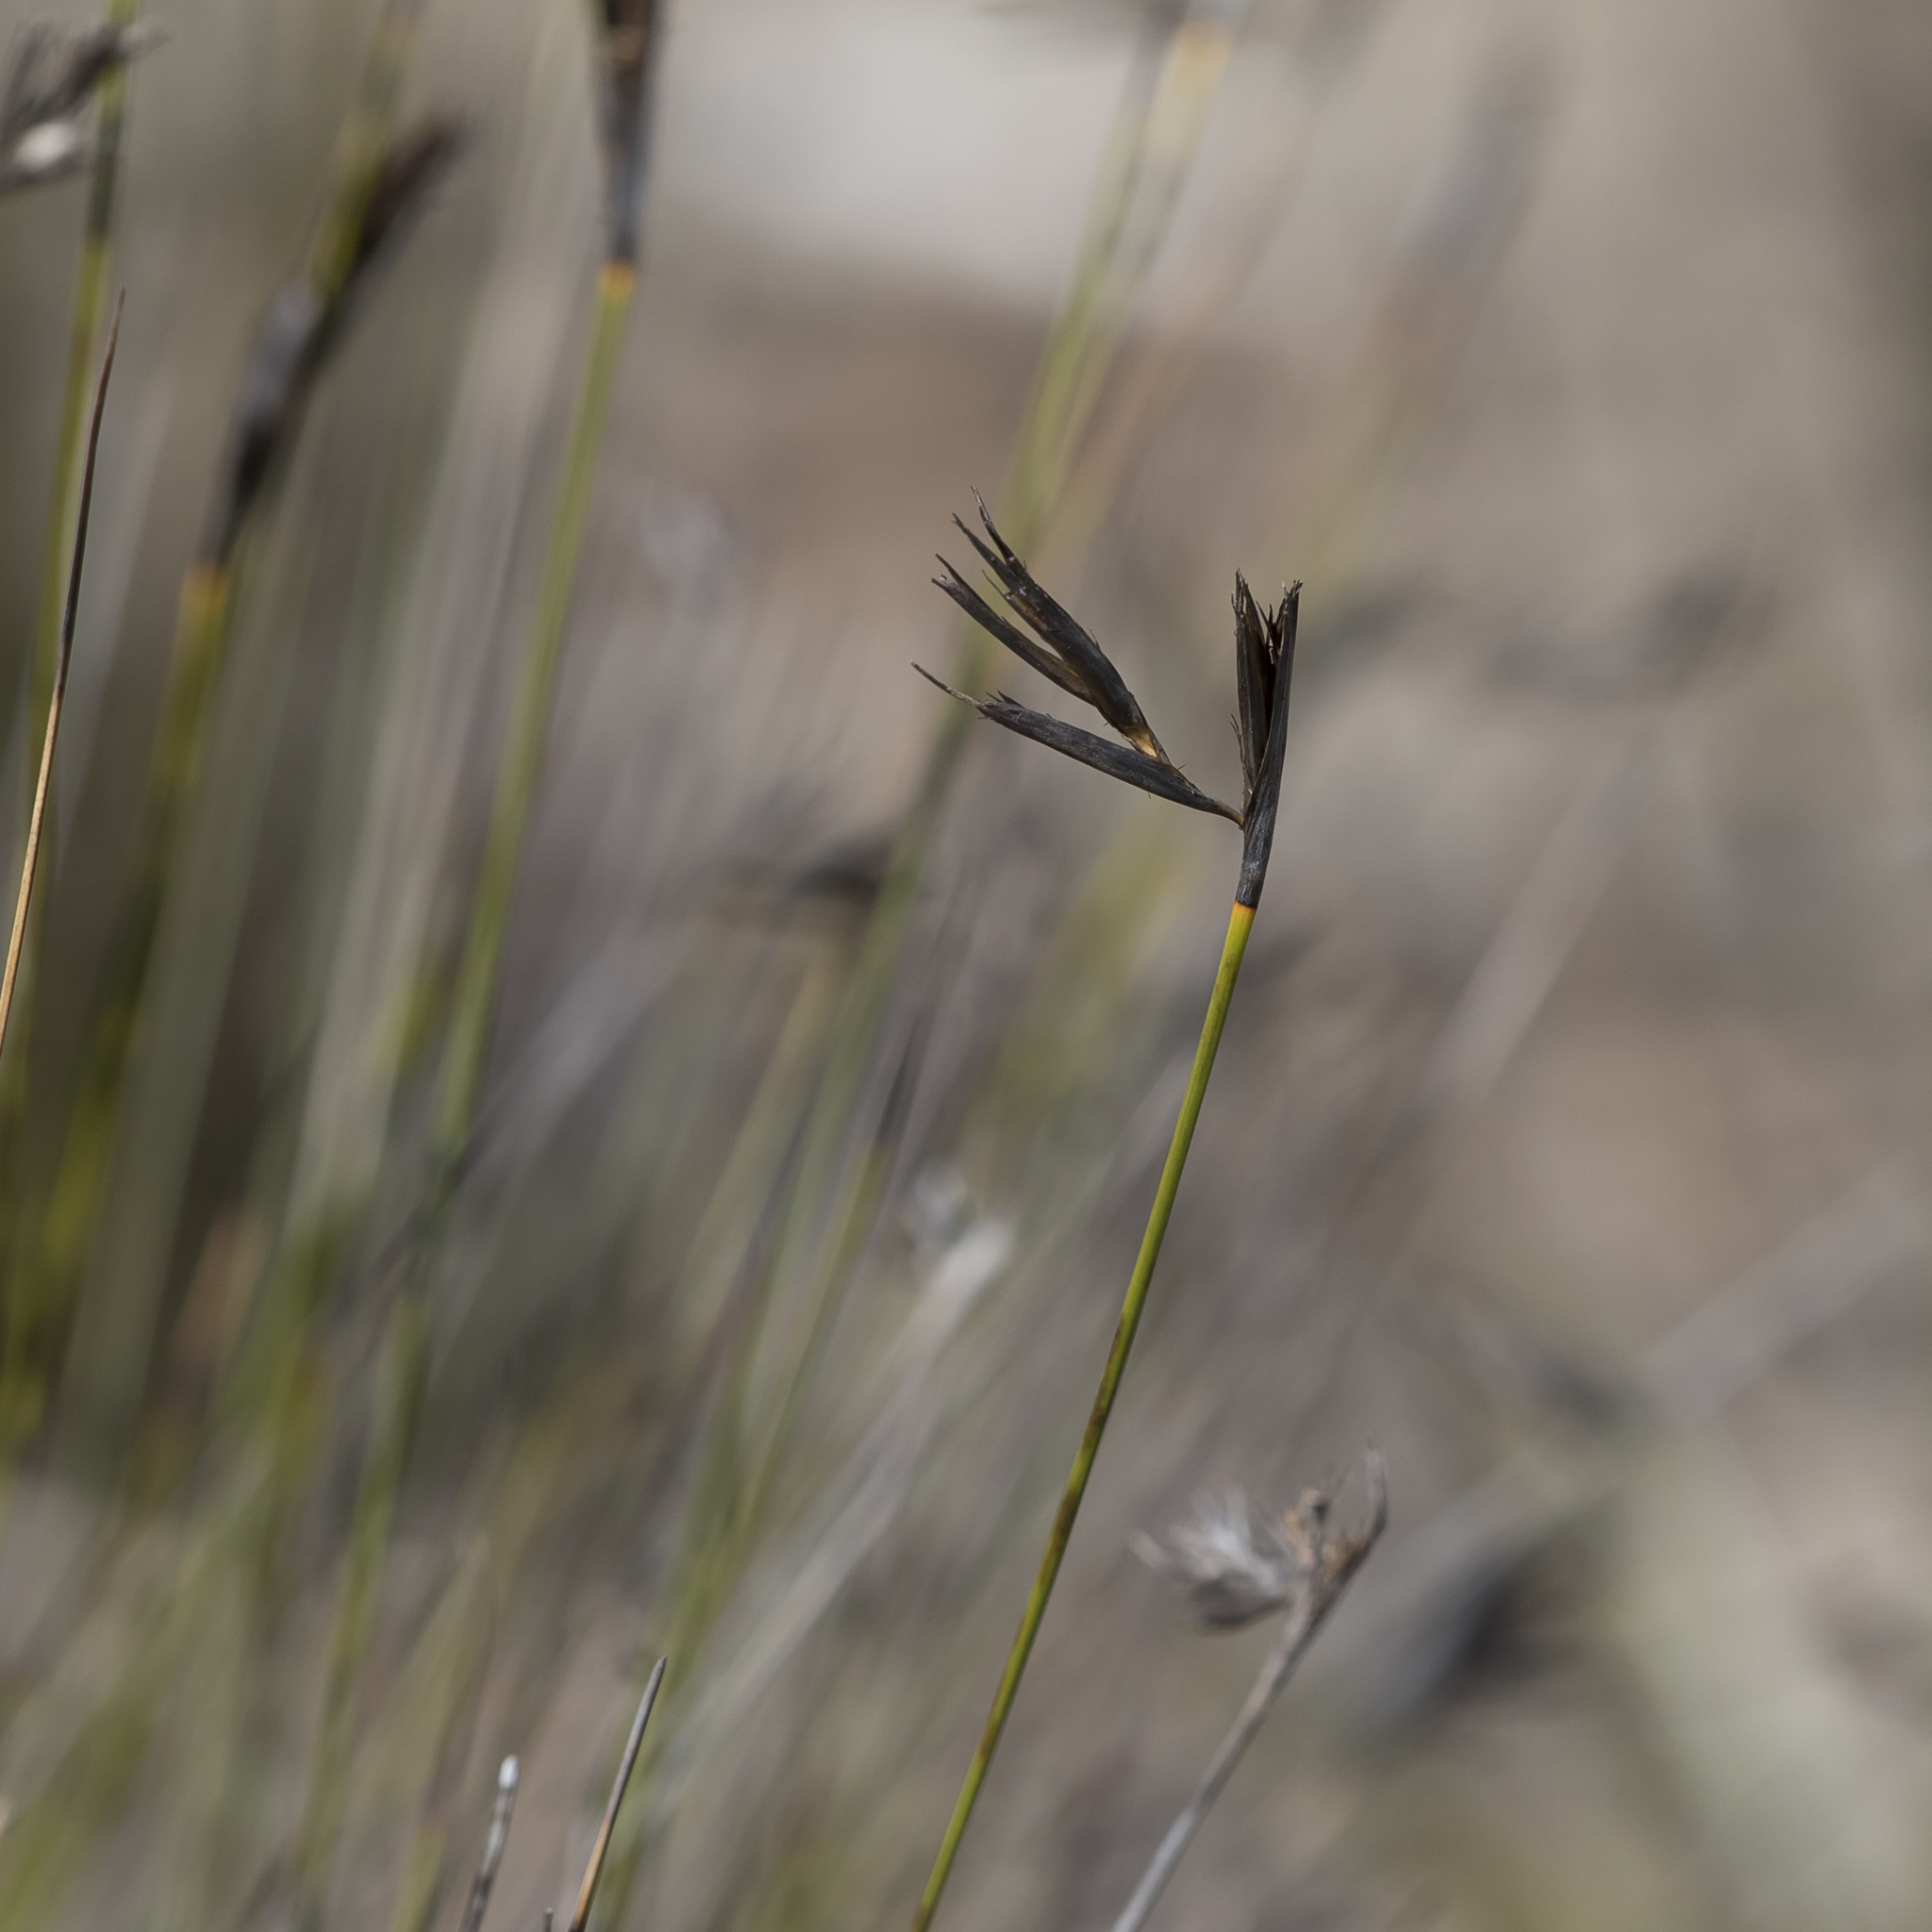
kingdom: Plantae
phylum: Tracheophyta
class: Liliopsida
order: Poales
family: Cyperaceae
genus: Lepidosperma
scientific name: Lepidosperma carphoides
